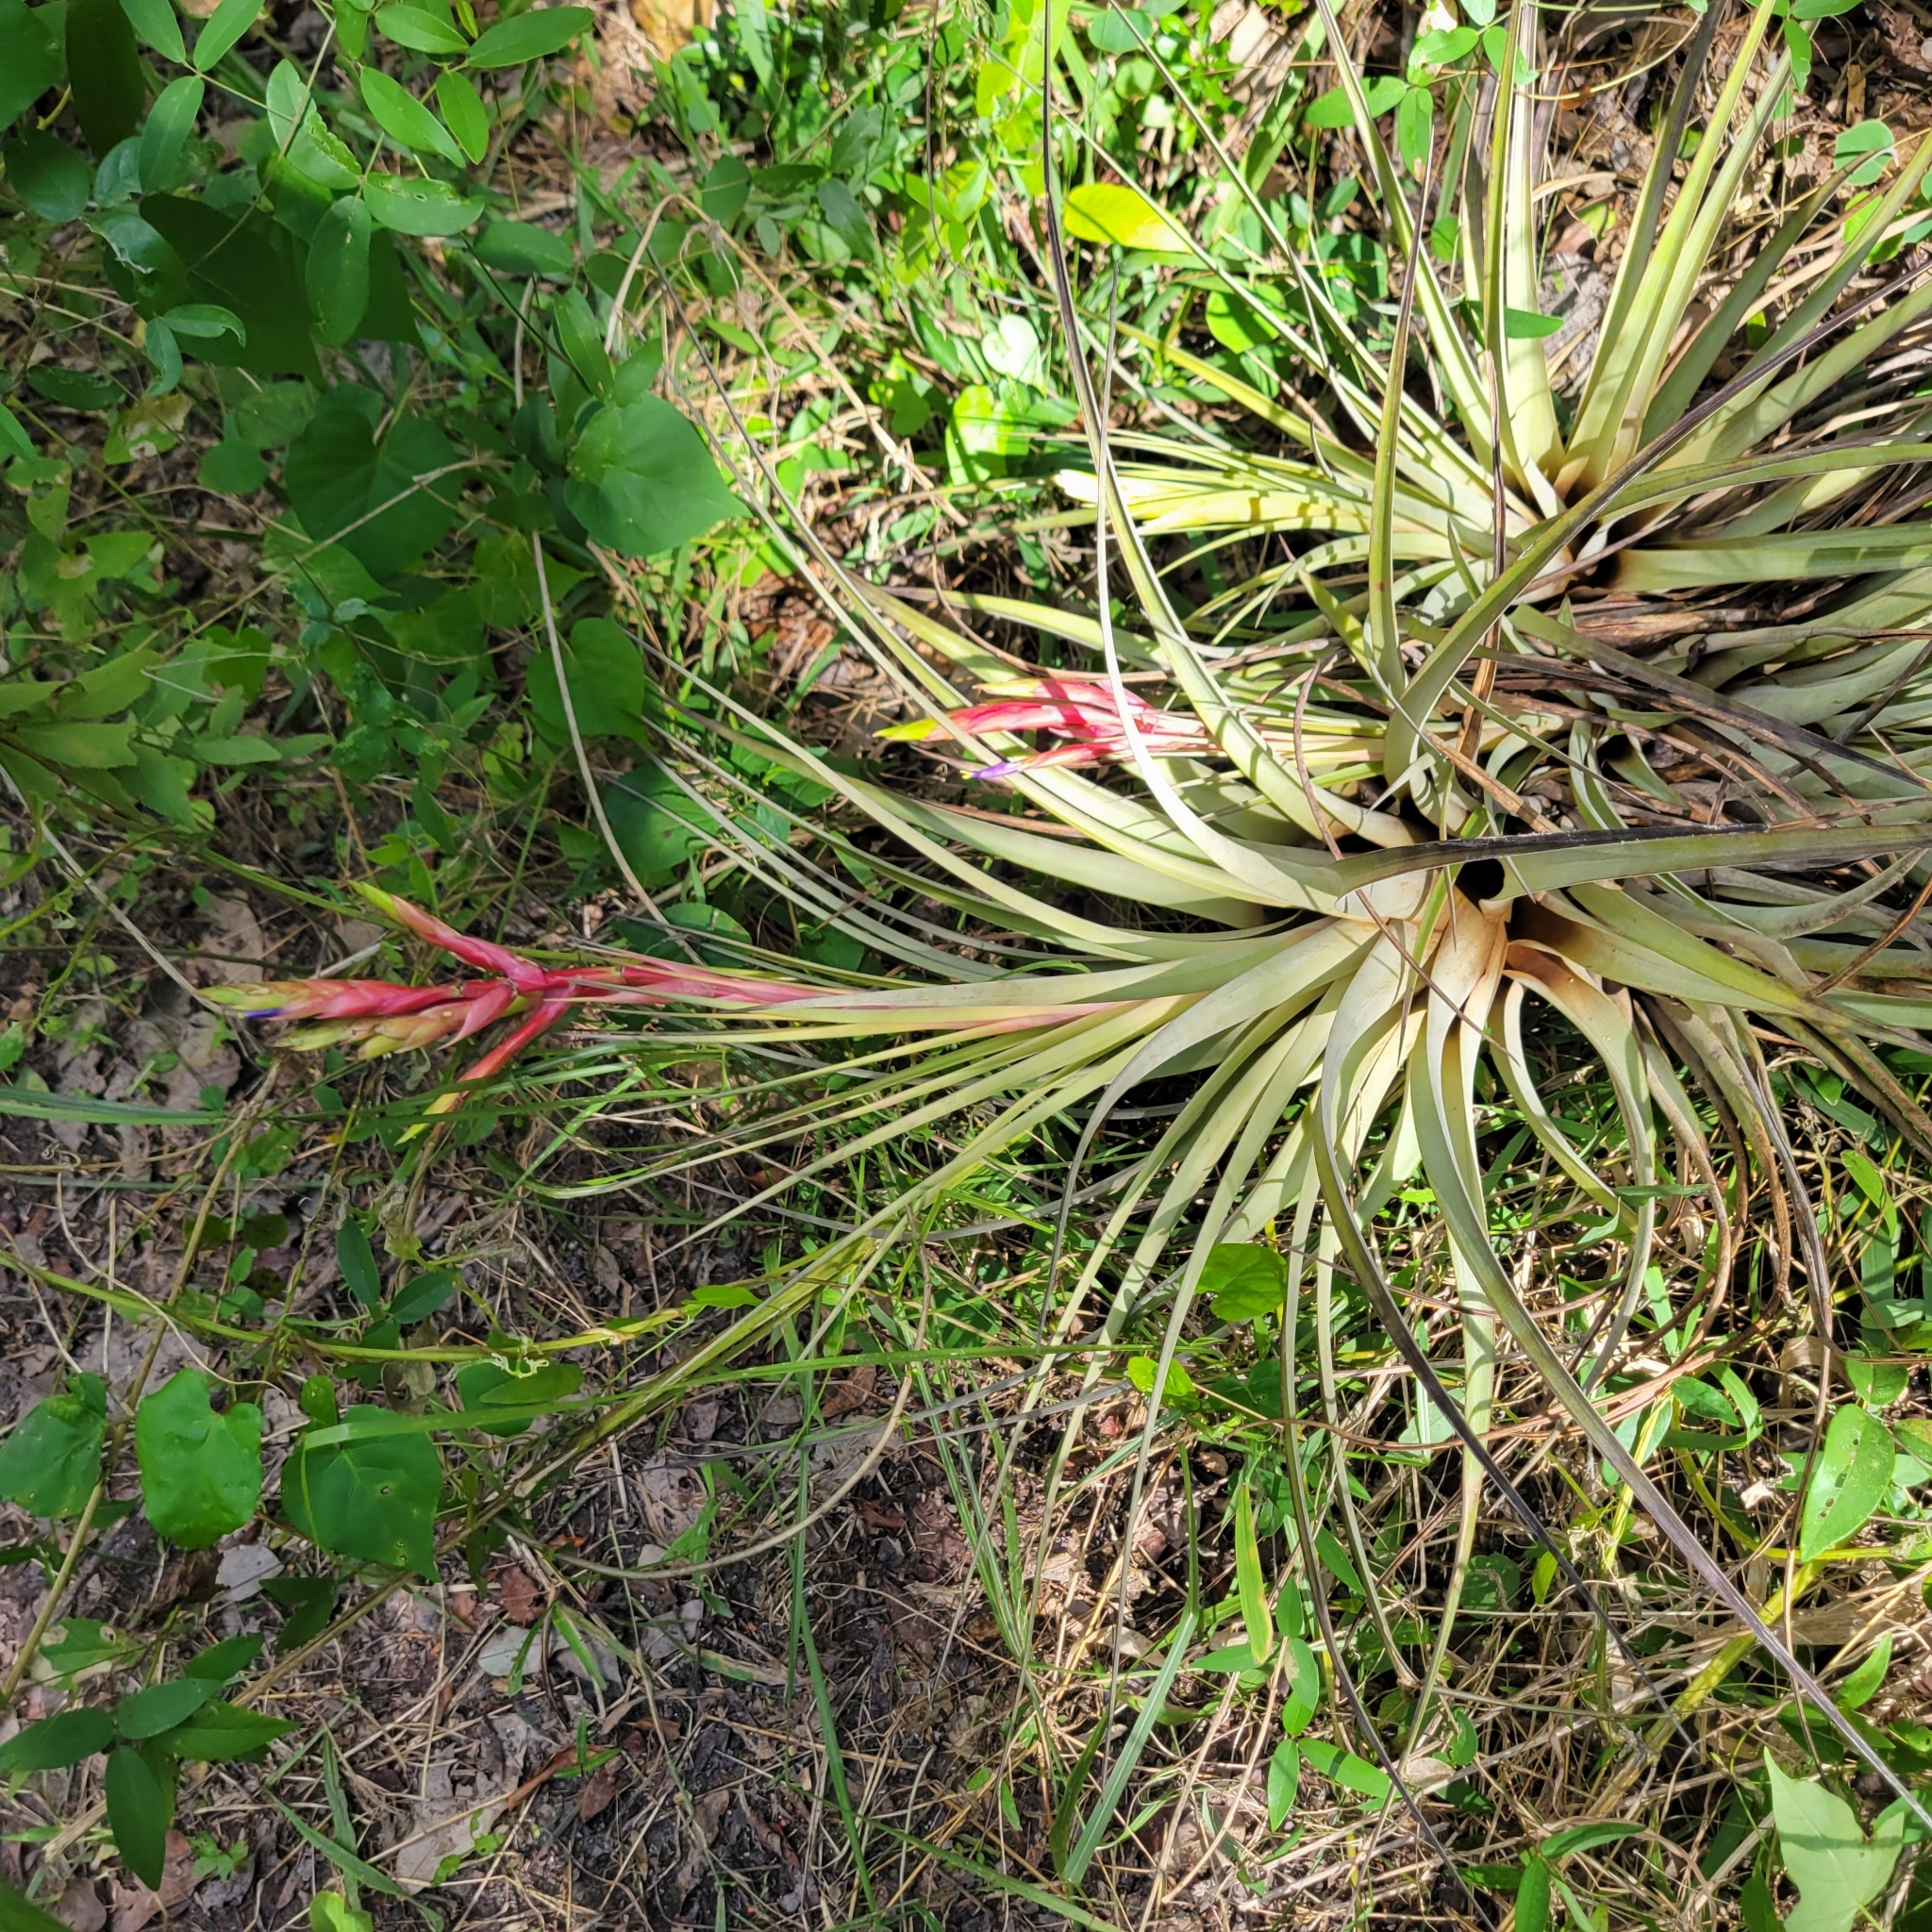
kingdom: Plantae
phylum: Tracheophyta
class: Liliopsida
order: Poales
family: Bromeliaceae
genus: Tillandsia
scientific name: Tillandsia fasciculata
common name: Giant airplant
